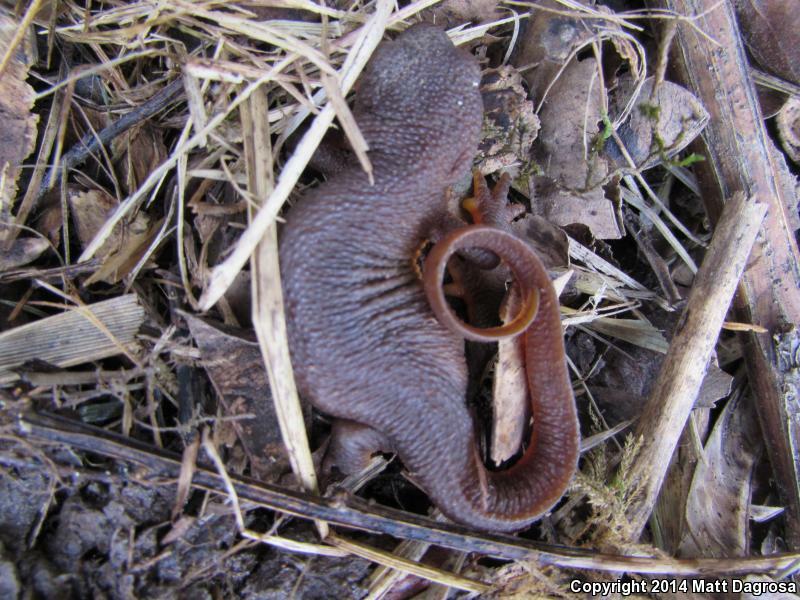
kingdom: Animalia
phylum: Chordata
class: Amphibia
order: Caudata
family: Salamandridae
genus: Taricha
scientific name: Taricha granulosa
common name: Roughskin newt
